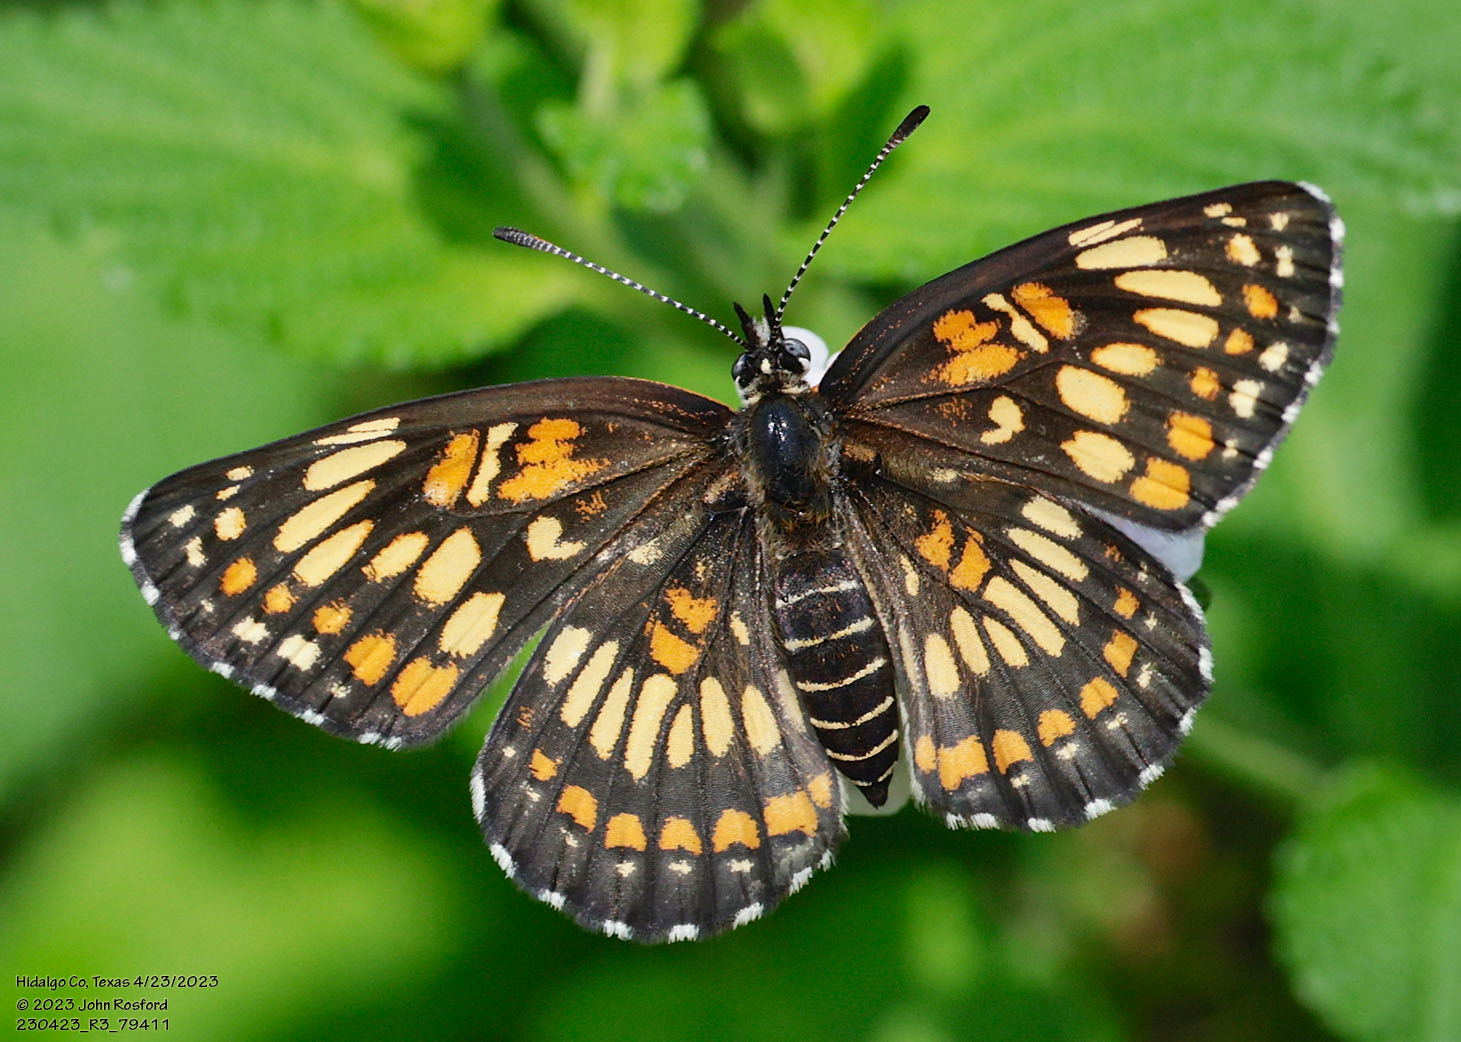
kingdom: Animalia
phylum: Arthropoda
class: Insecta
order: Lepidoptera
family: Nymphalidae
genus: Thessalia
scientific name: Thessalia theona
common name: Nymphalid moth
